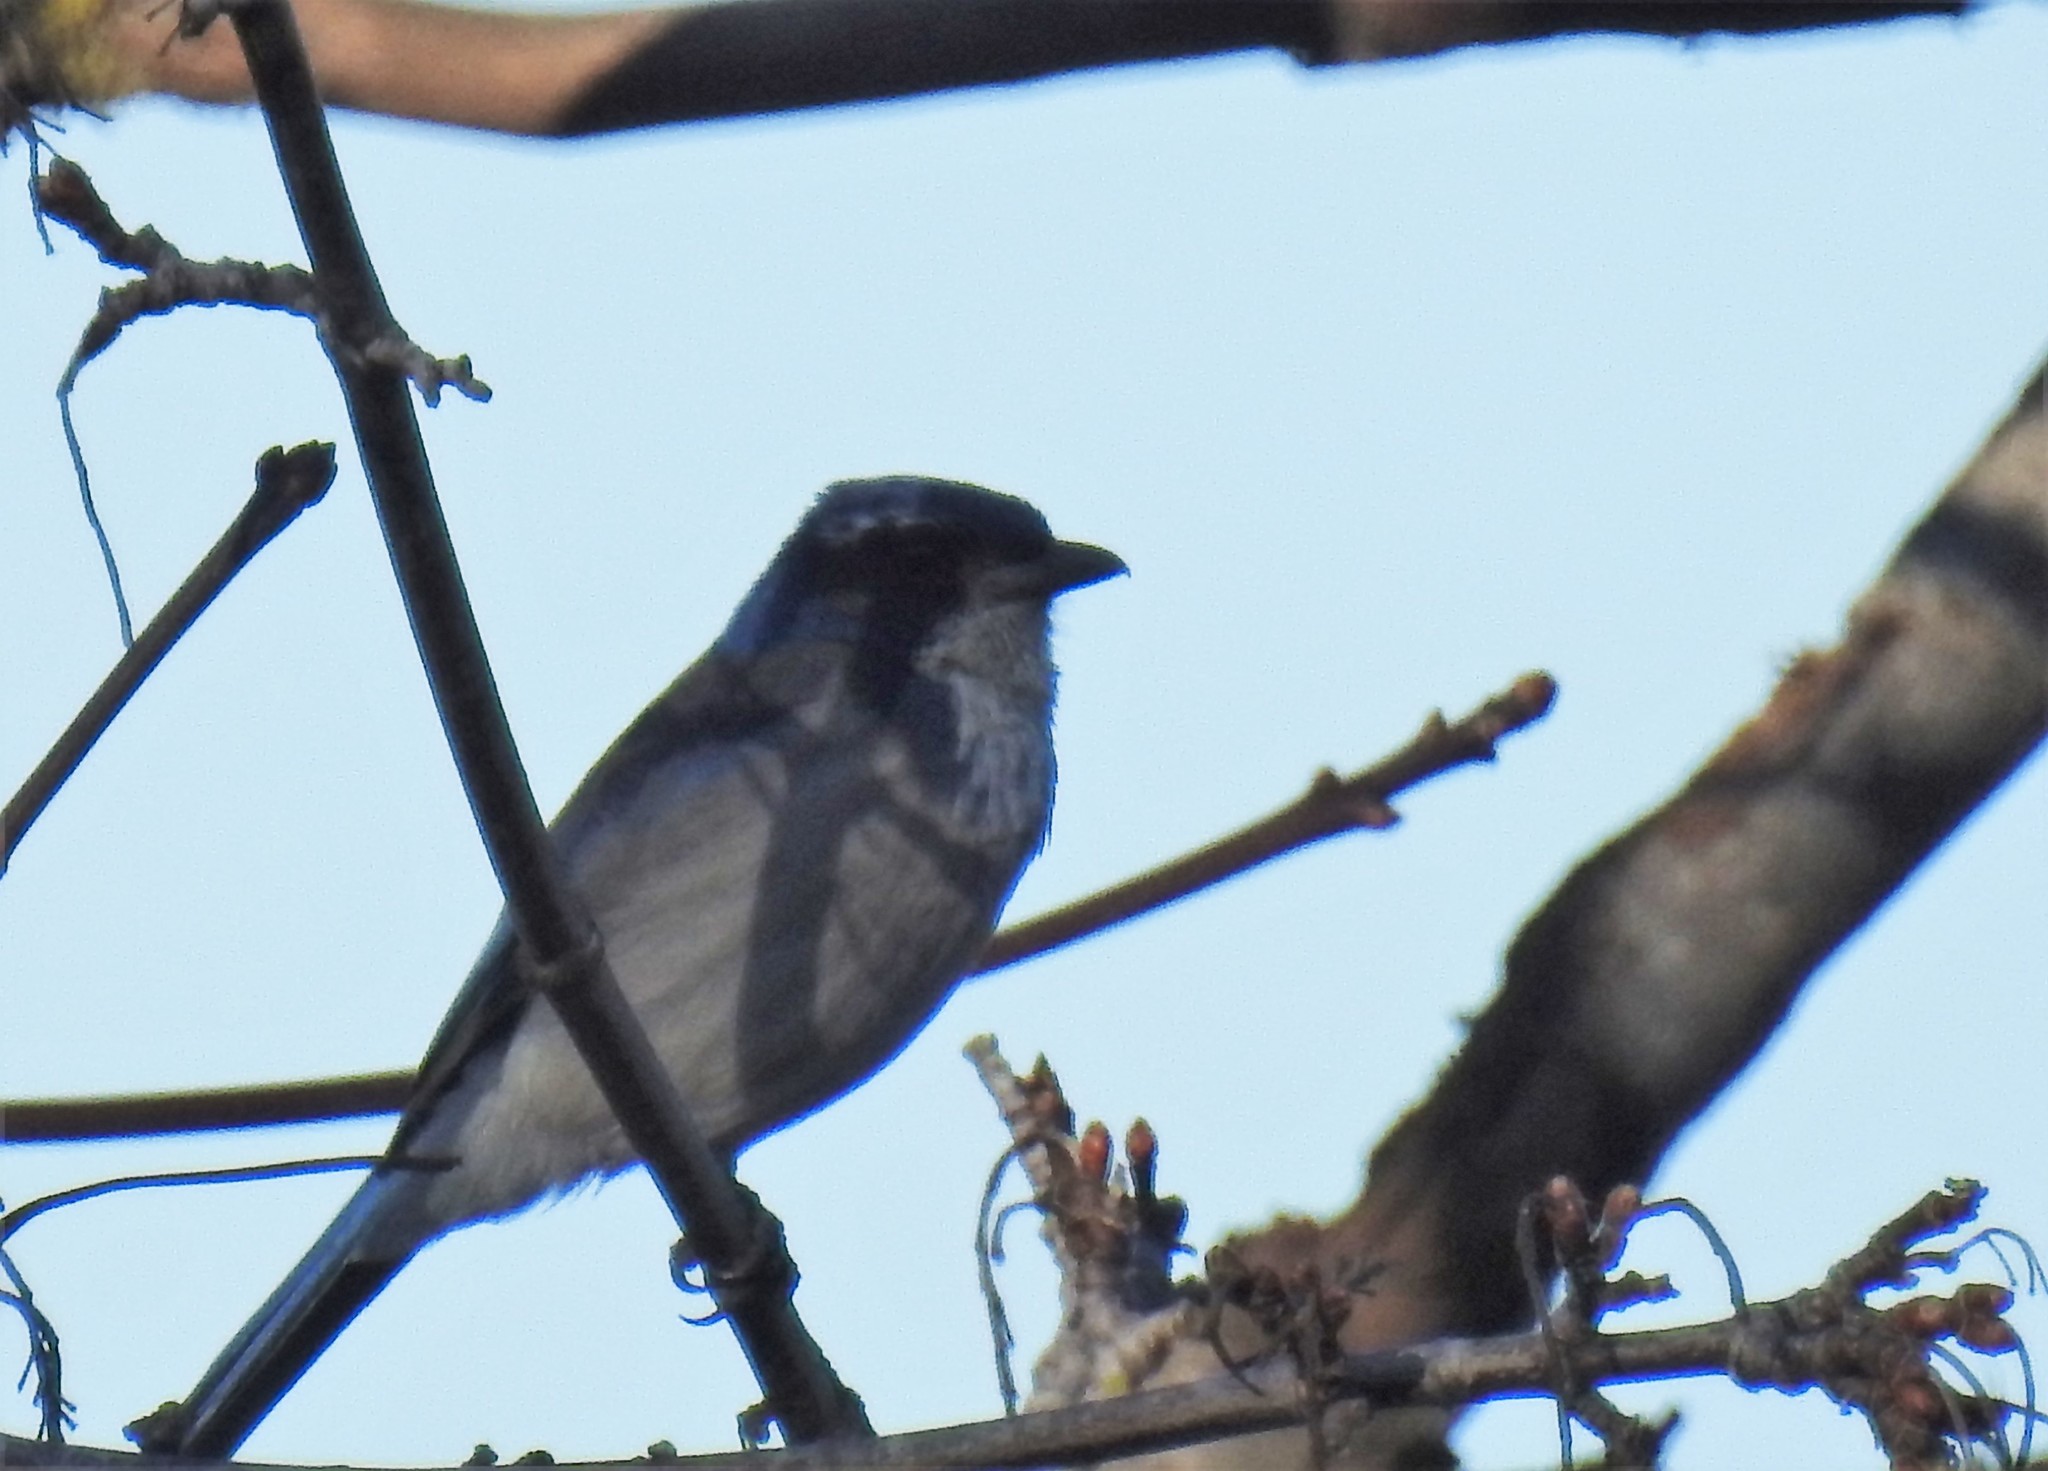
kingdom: Animalia
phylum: Chordata
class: Aves
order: Passeriformes
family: Corvidae
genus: Aphelocoma
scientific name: Aphelocoma californica
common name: California scrub-jay
